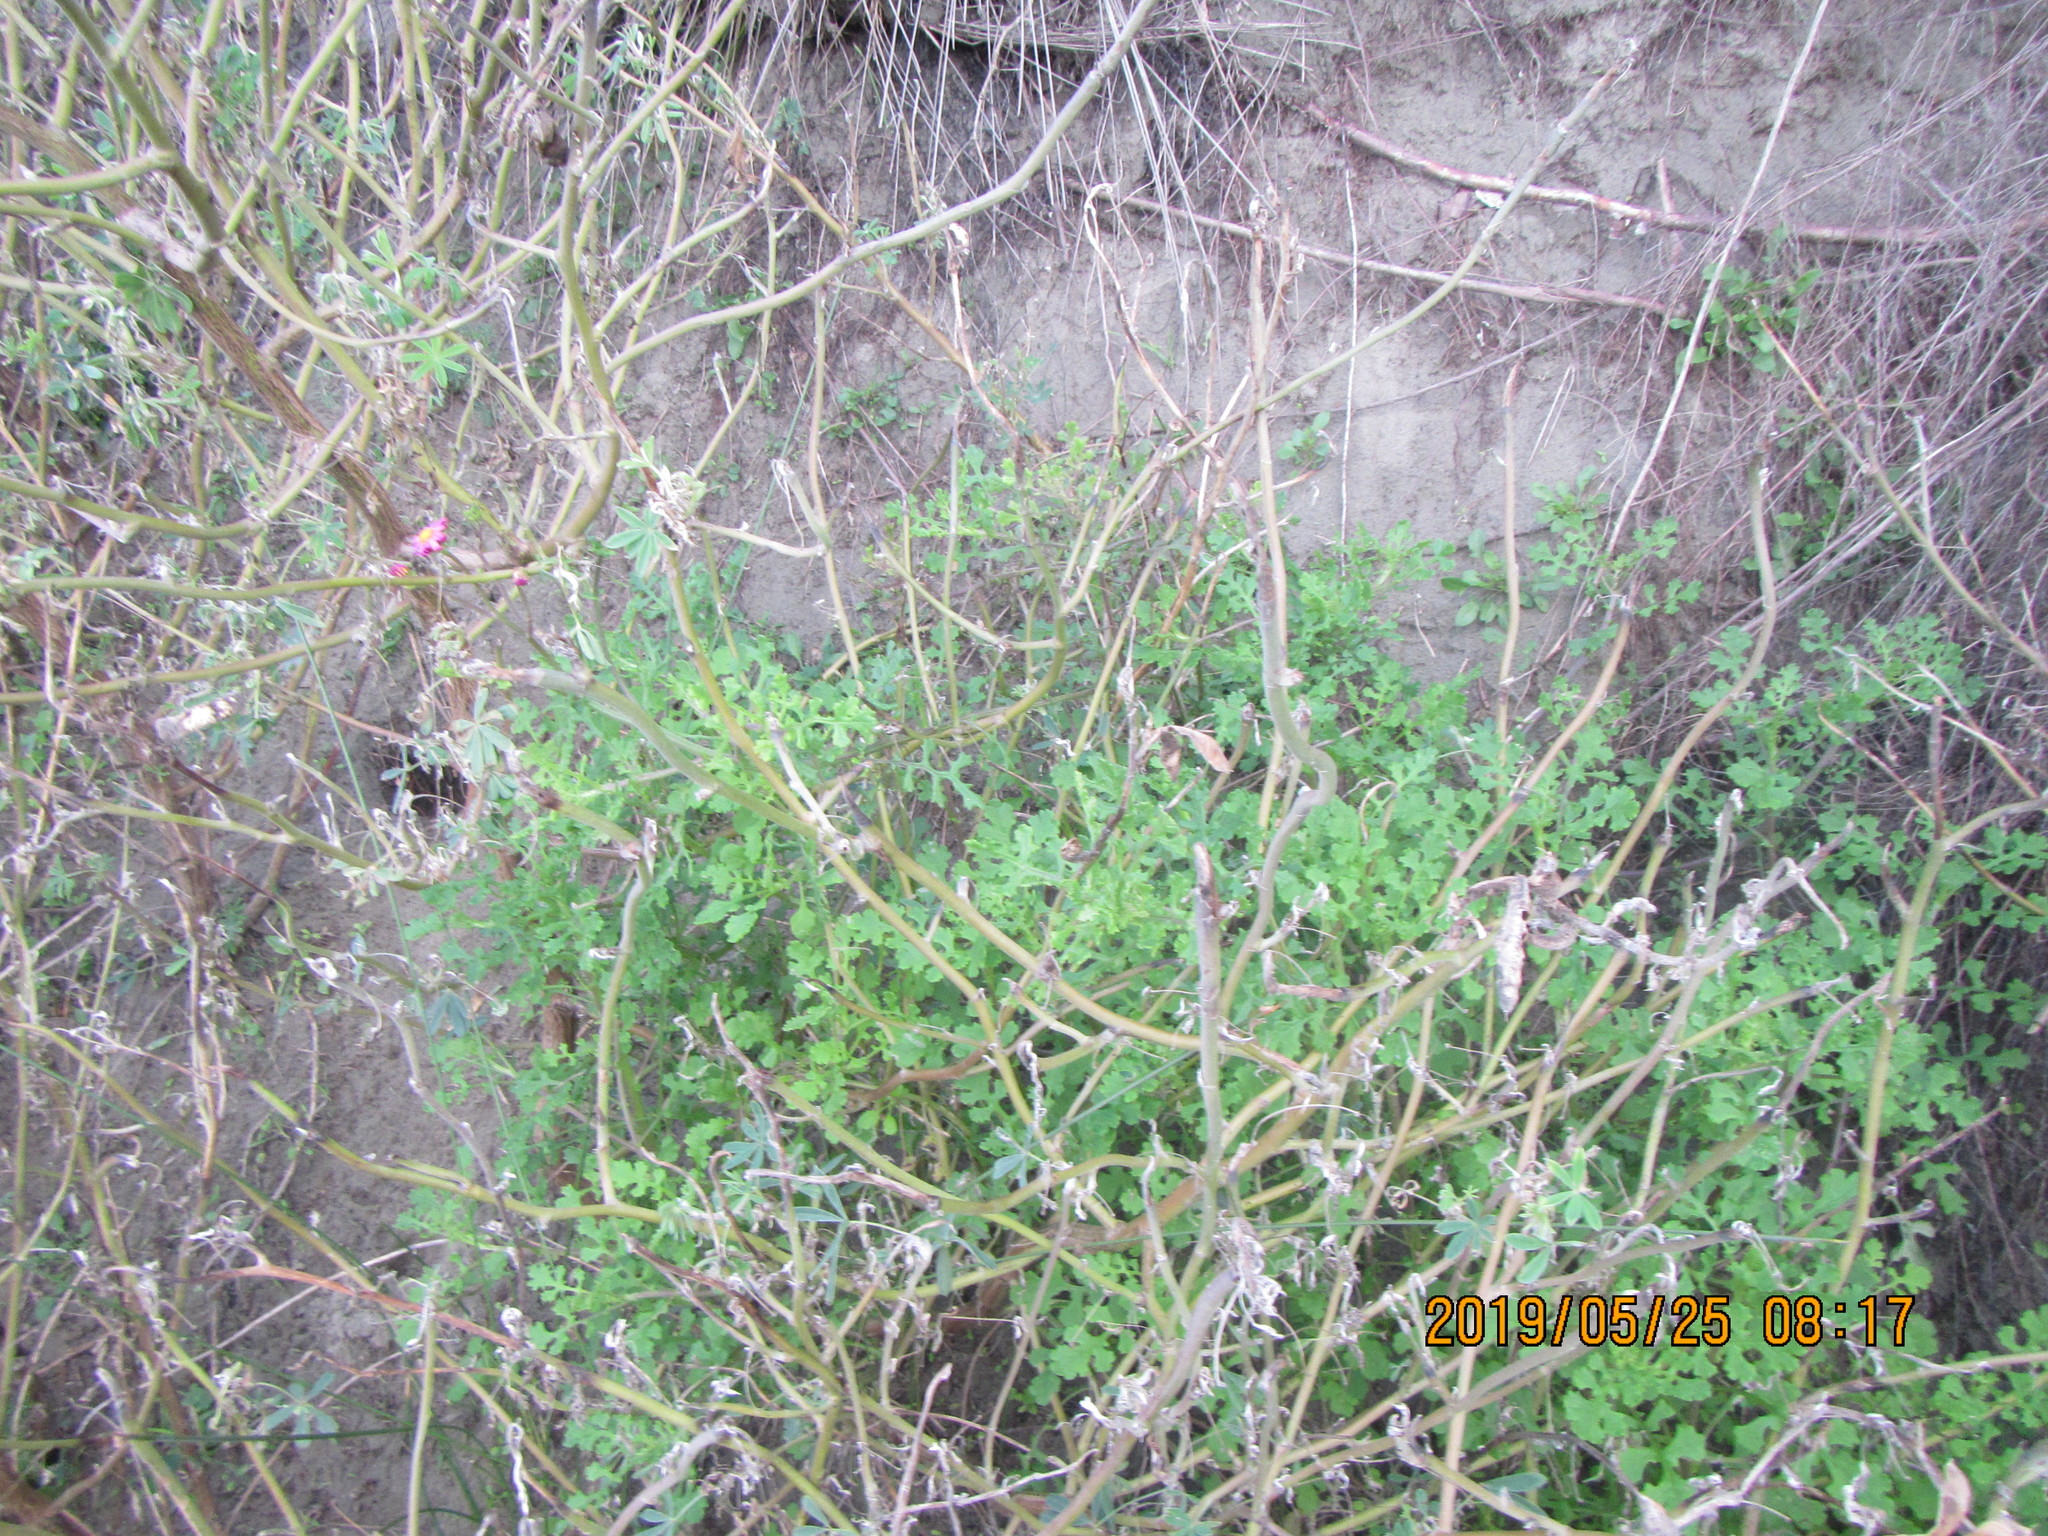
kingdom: Plantae
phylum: Tracheophyta
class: Magnoliopsida
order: Asterales
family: Asteraceae
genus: Senecio
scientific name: Senecio elegans
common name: Purple groundsel
